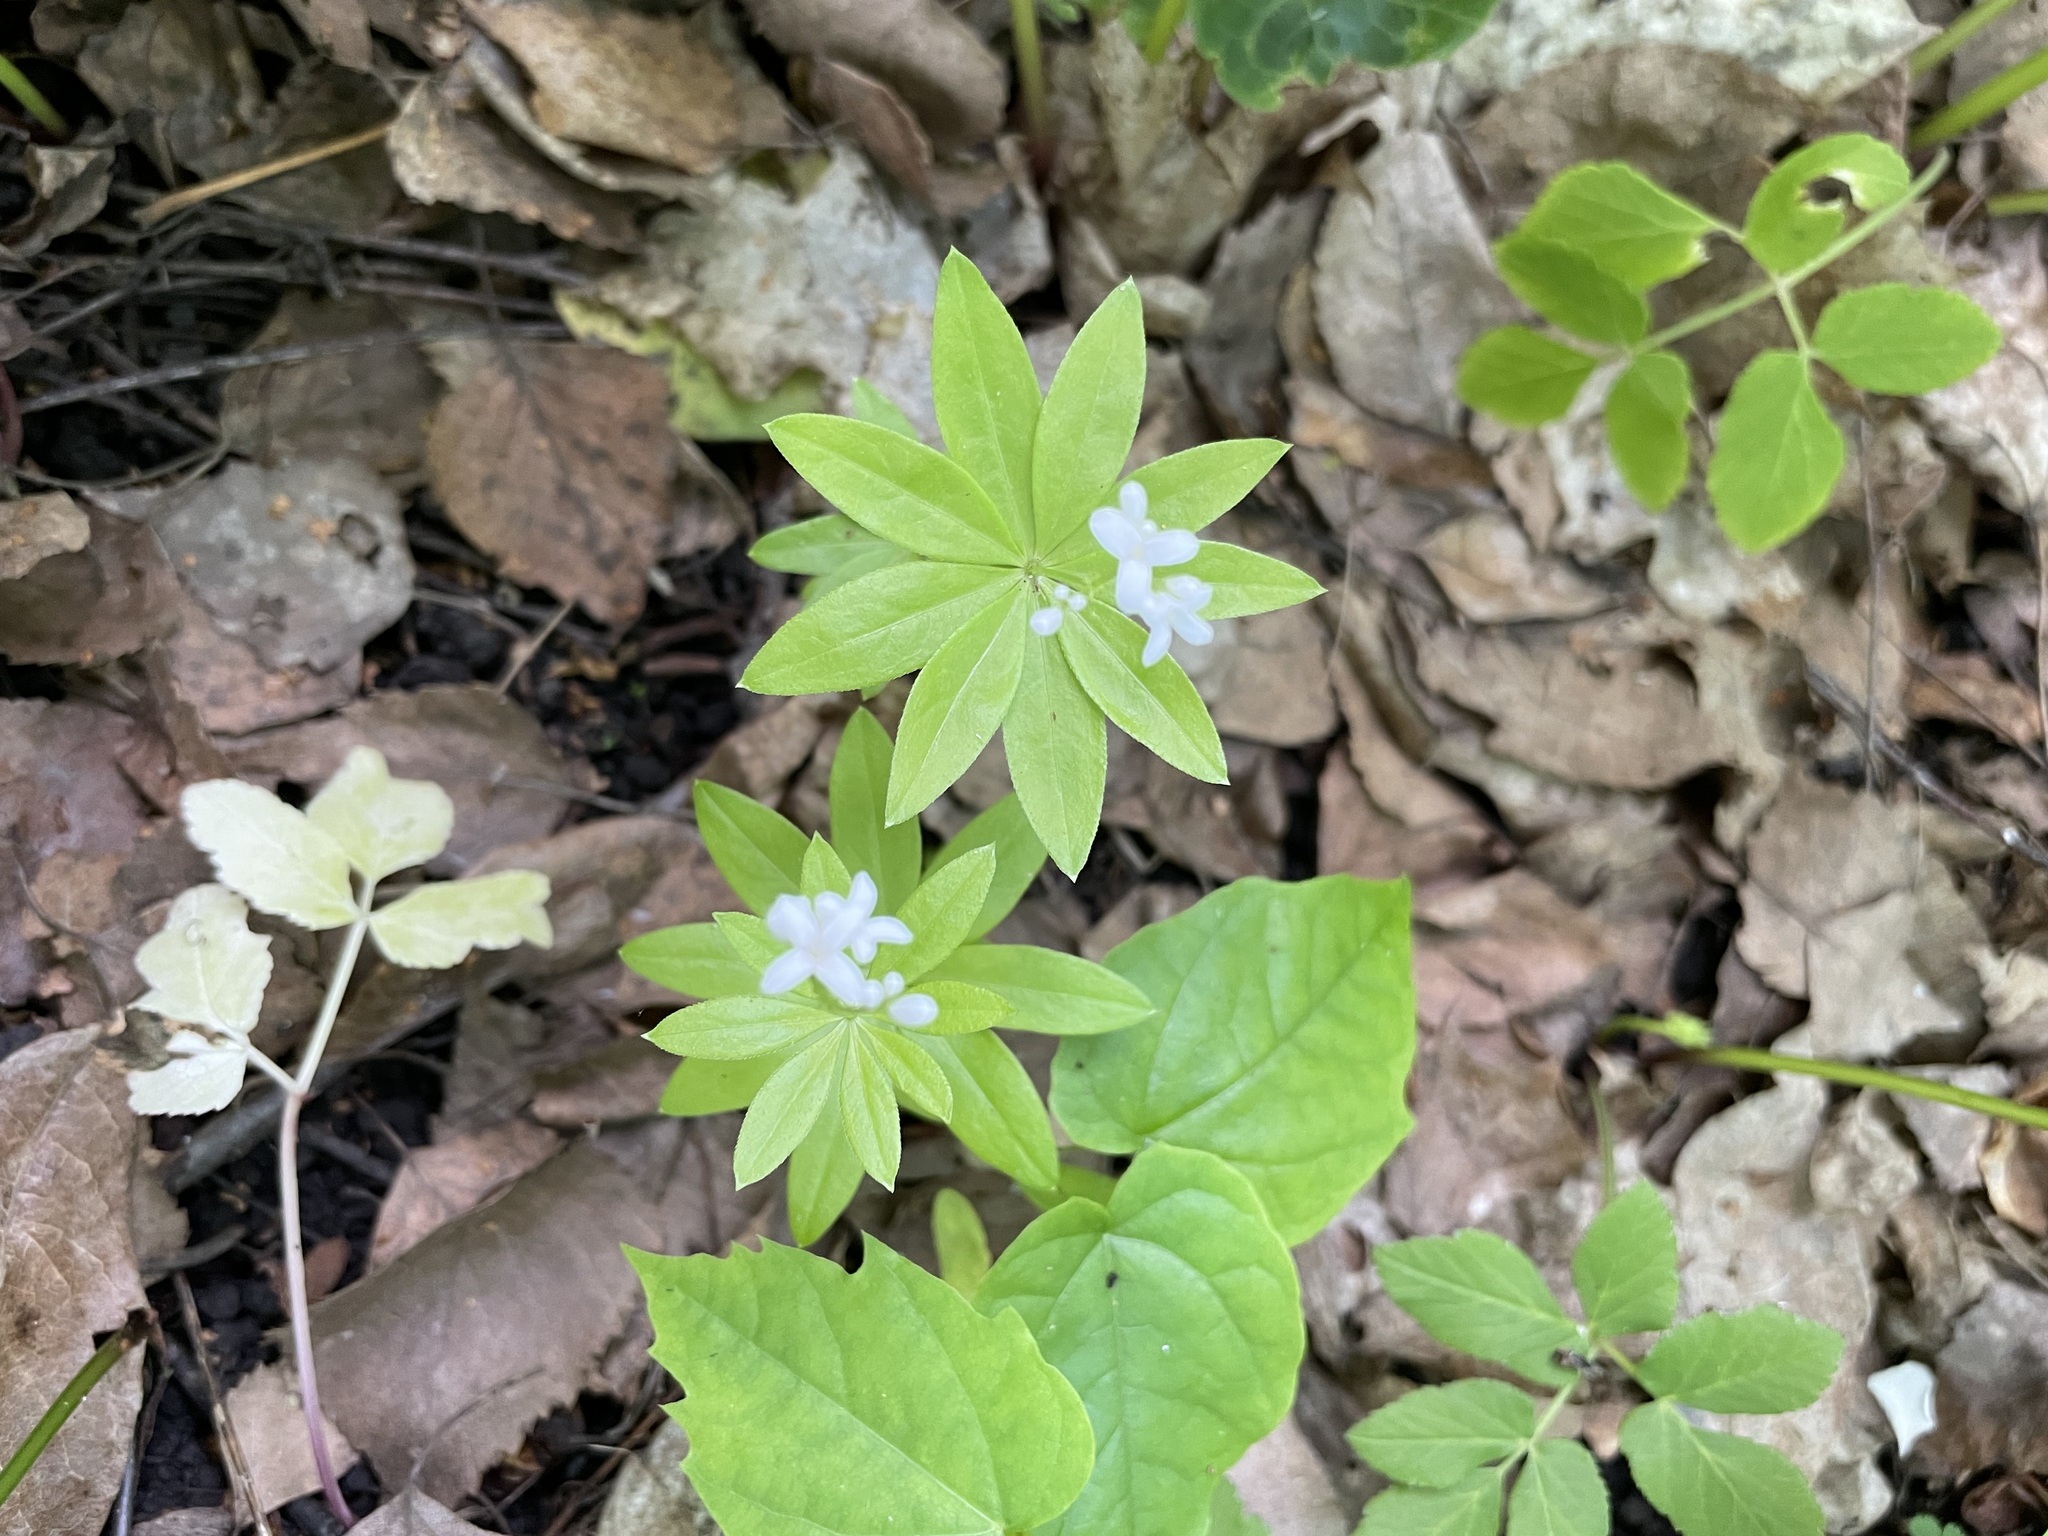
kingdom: Plantae
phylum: Tracheophyta
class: Magnoliopsida
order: Gentianales
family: Rubiaceae
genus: Galium
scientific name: Galium odoratum
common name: Sweet woodruff
